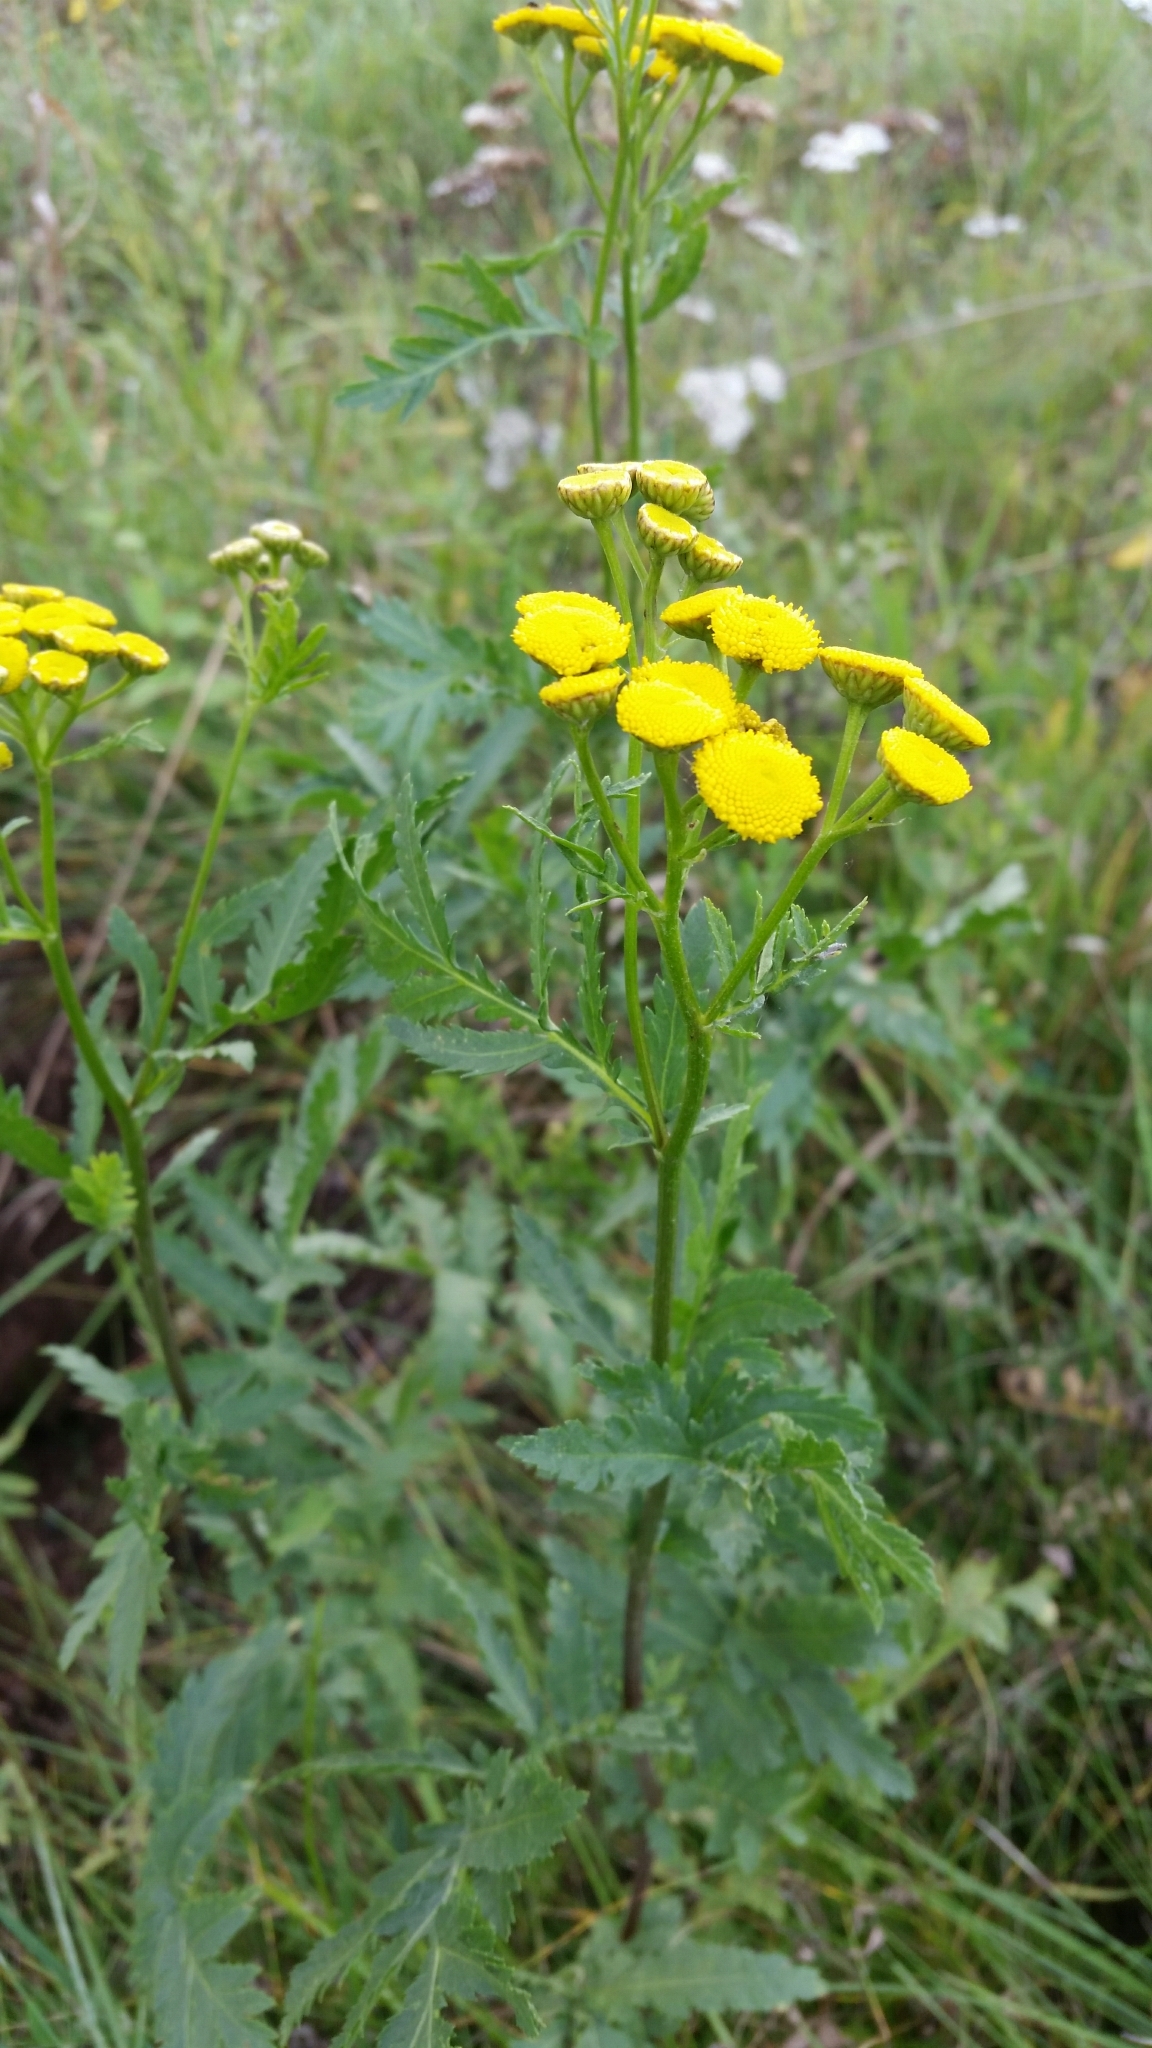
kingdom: Plantae
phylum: Tracheophyta
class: Magnoliopsida
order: Asterales
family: Asteraceae
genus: Tanacetum
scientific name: Tanacetum vulgare
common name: Common tansy
